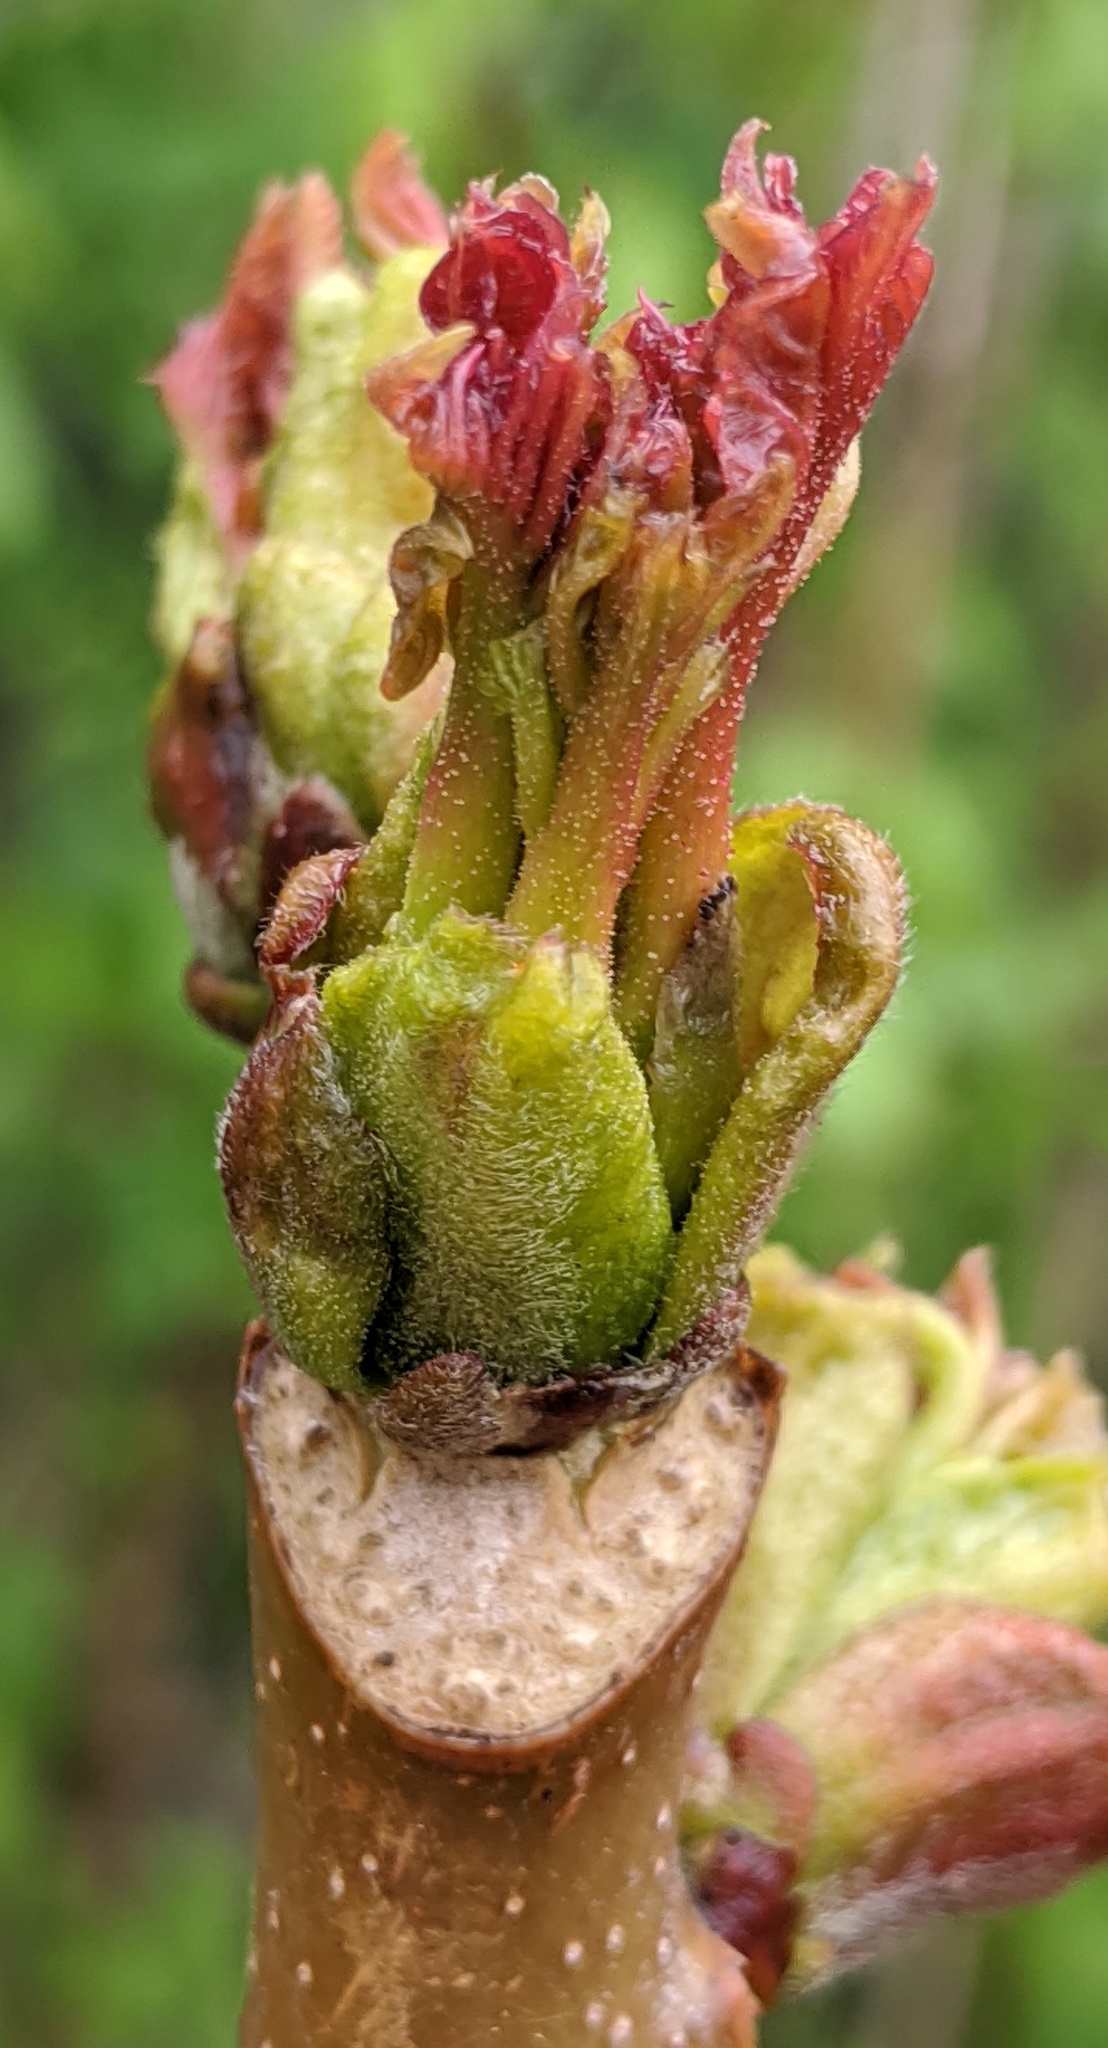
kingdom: Plantae
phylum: Tracheophyta
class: Magnoliopsida
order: Sapindales
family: Simaroubaceae
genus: Ailanthus
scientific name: Ailanthus altissima
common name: Tree-of-heaven
